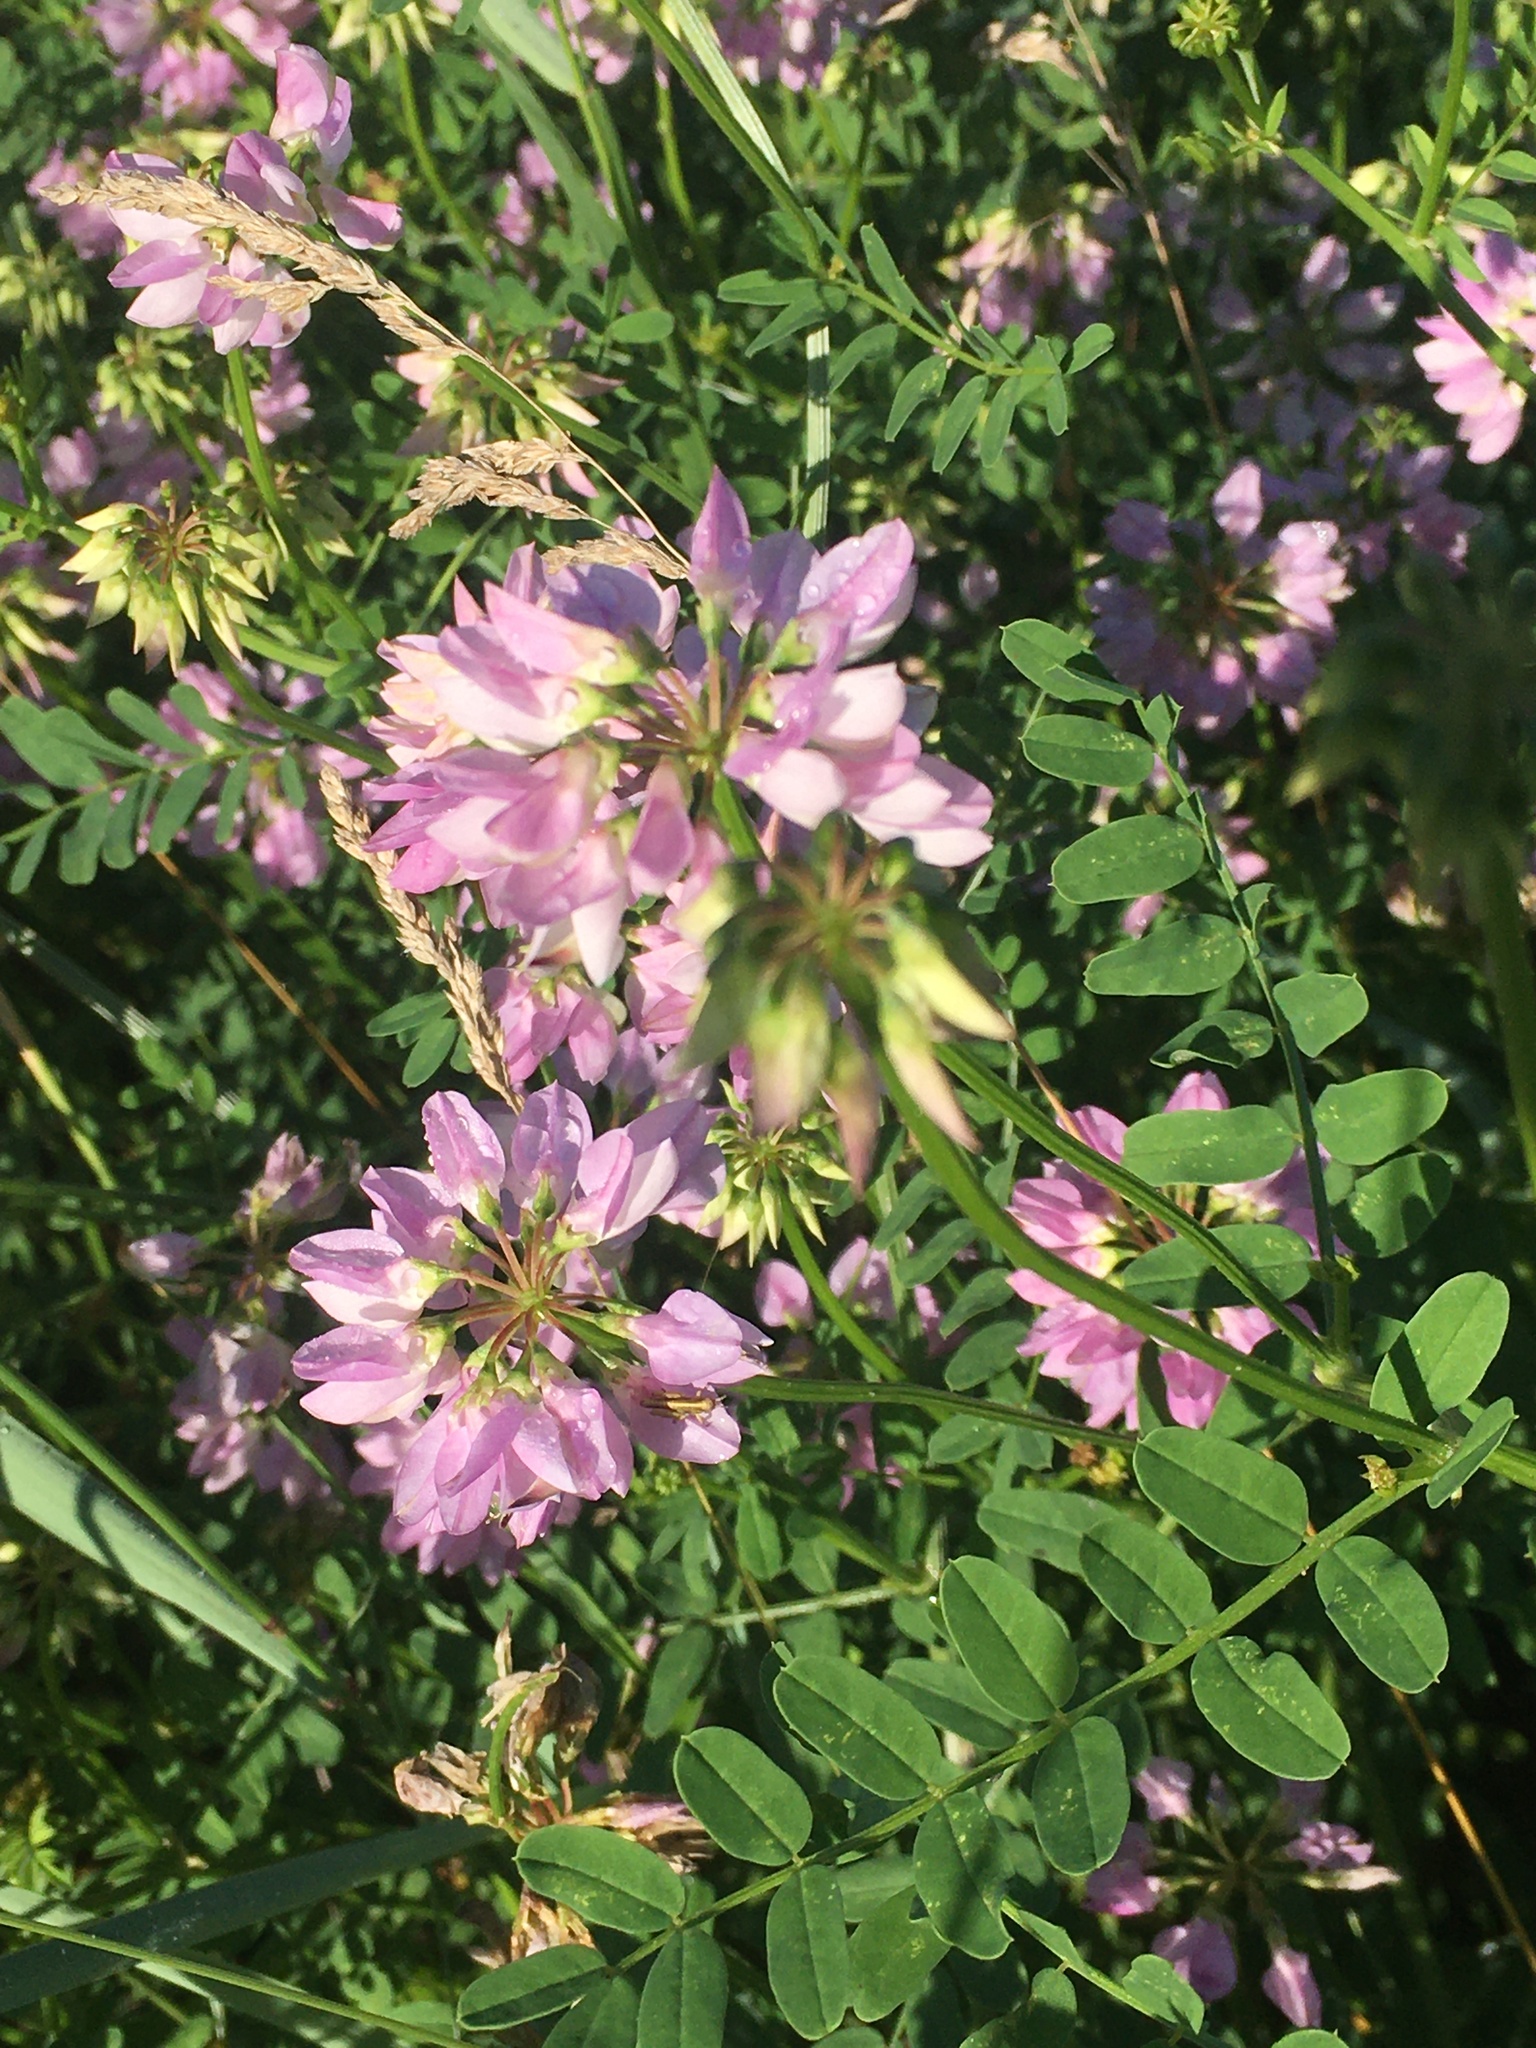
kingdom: Plantae
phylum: Tracheophyta
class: Magnoliopsida
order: Fabales
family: Fabaceae
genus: Coronilla
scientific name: Coronilla varia
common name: Crownvetch
